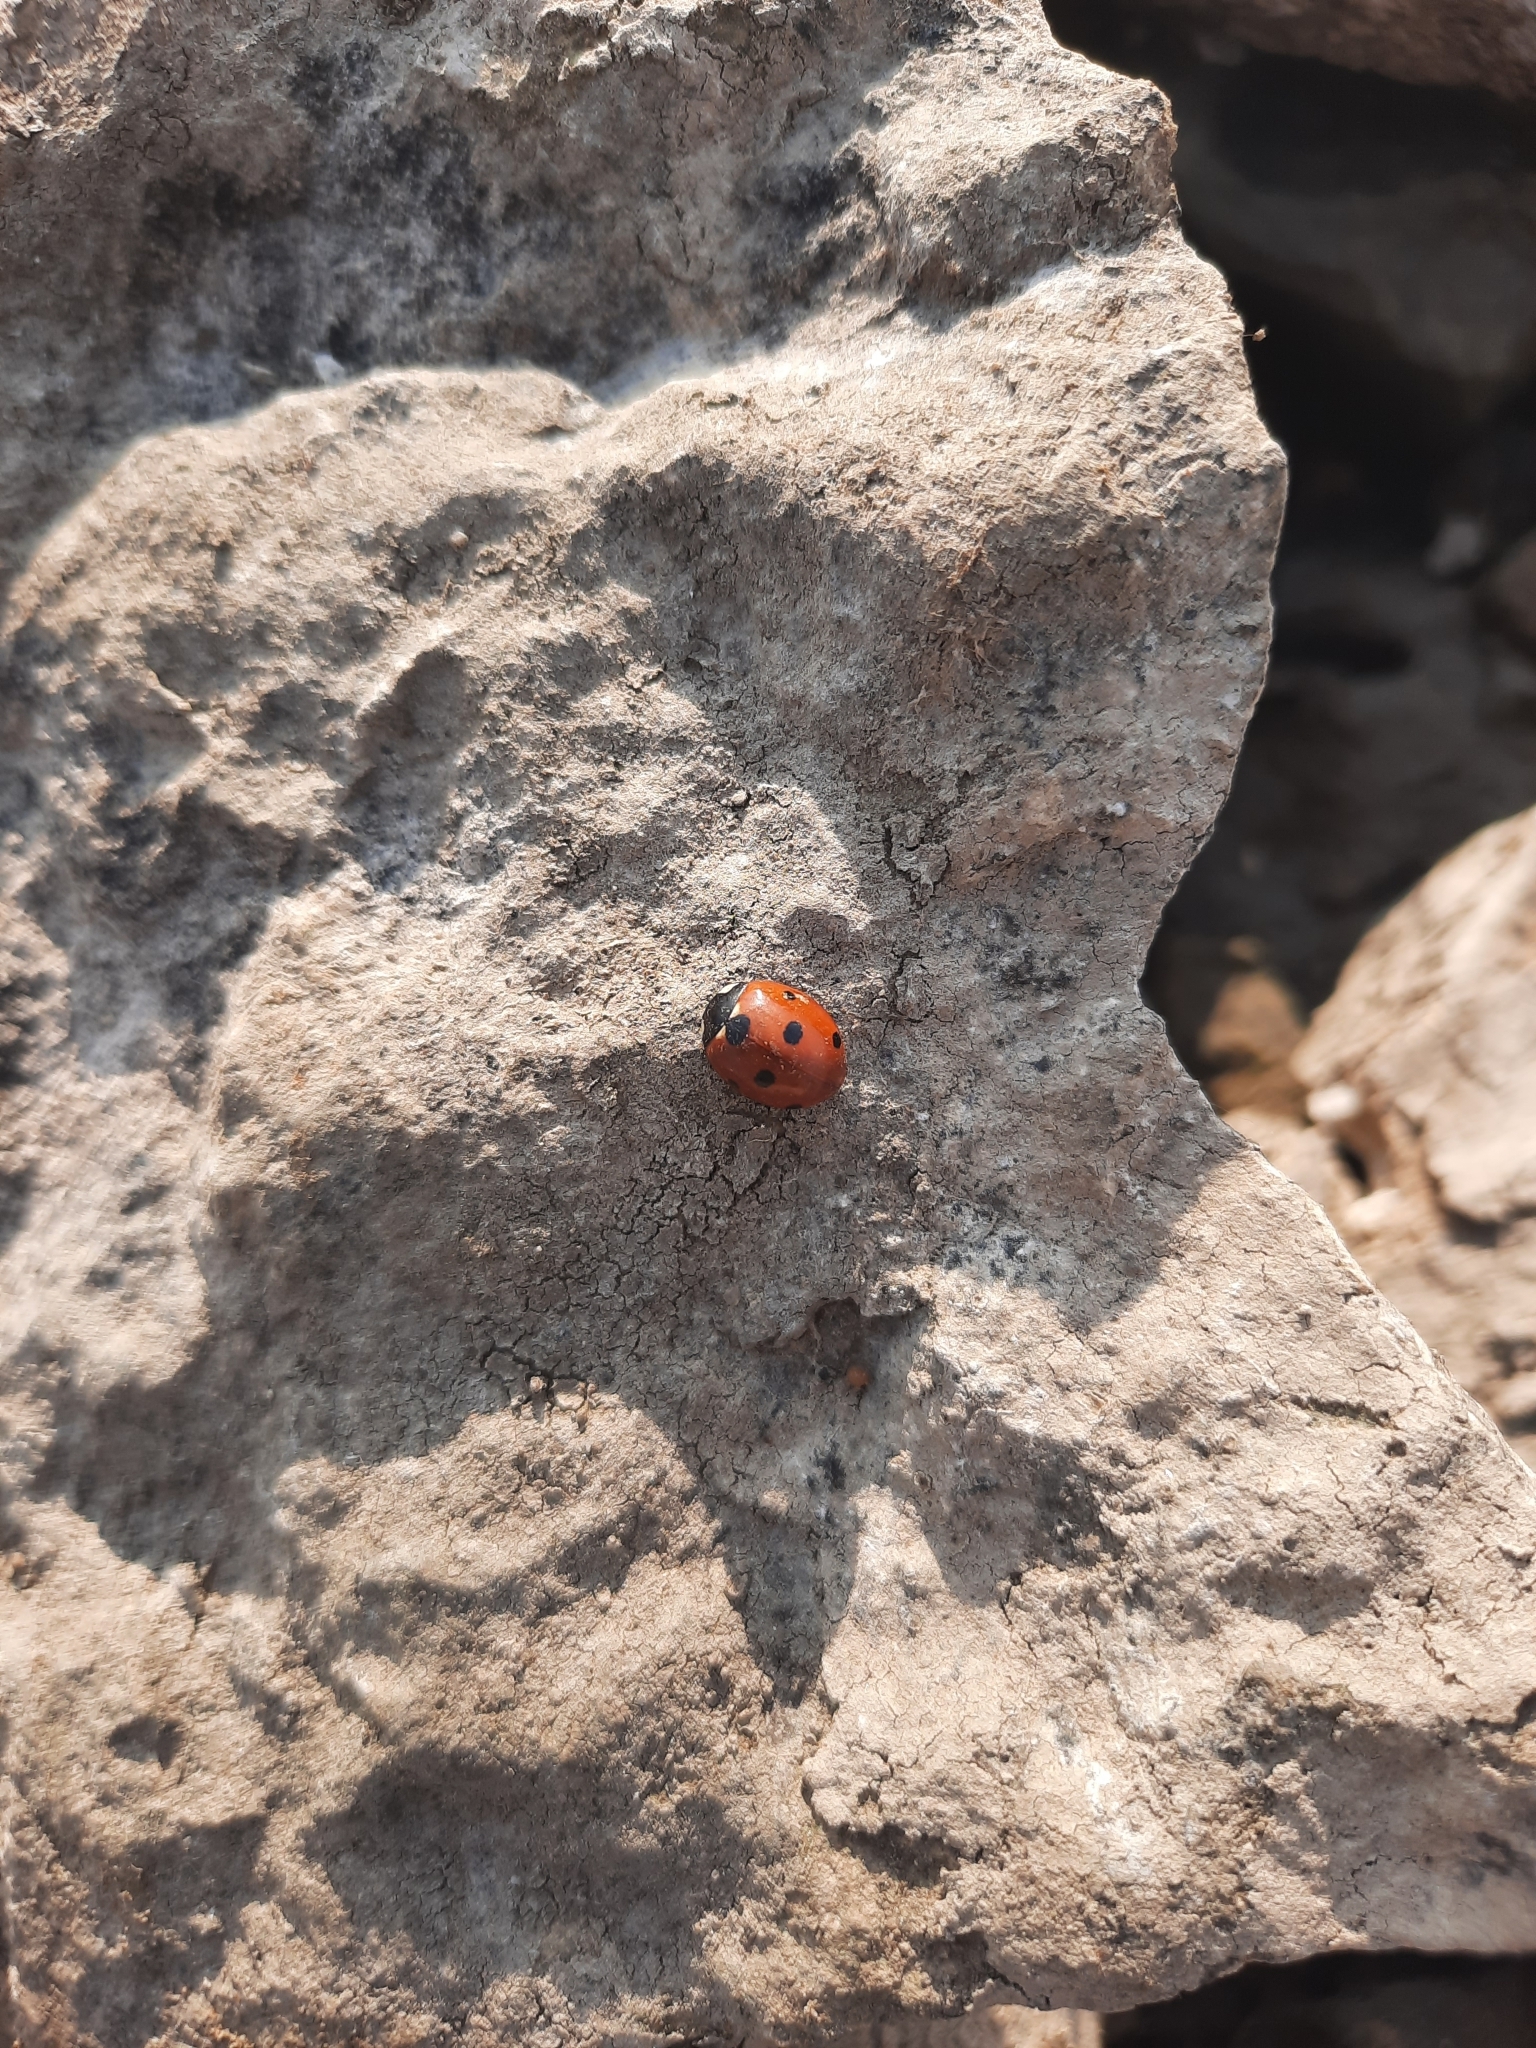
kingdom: Animalia
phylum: Arthropoda
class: Insecta
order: Coleoptera
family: Coccinellidae
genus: Coccinella
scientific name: Coccinella septempunctata
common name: Sevenspotted lady beetle
